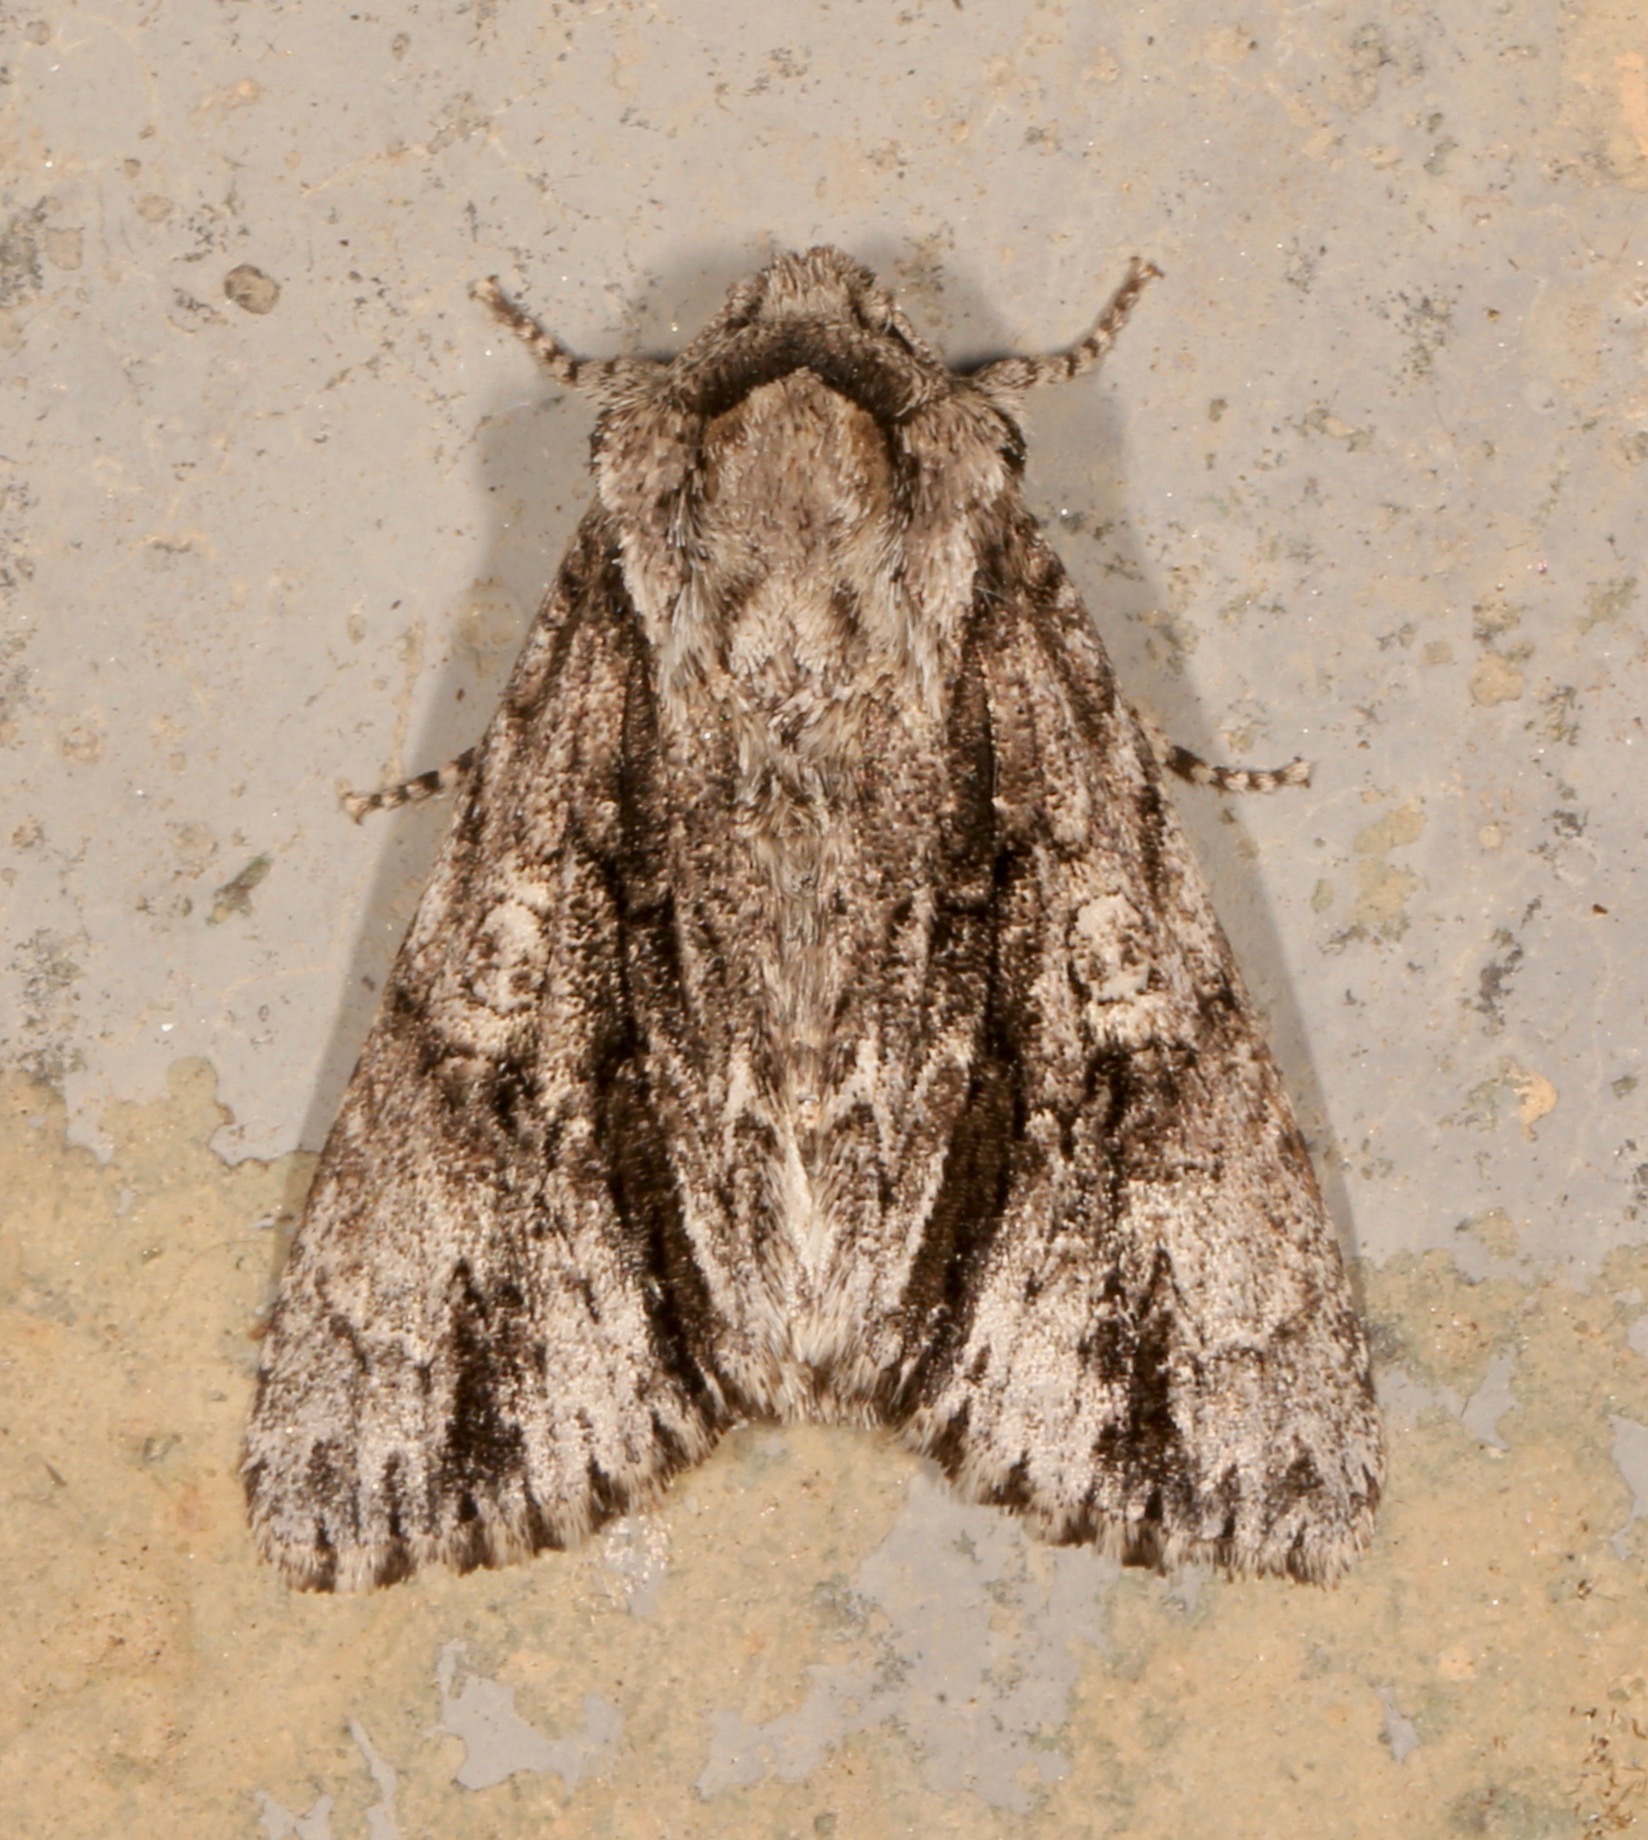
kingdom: Animalia
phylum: Arthropoda
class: Insecta
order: Lepidoptera
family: Noctuidae
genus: Acronicta
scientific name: Acronicta atristrigatus
